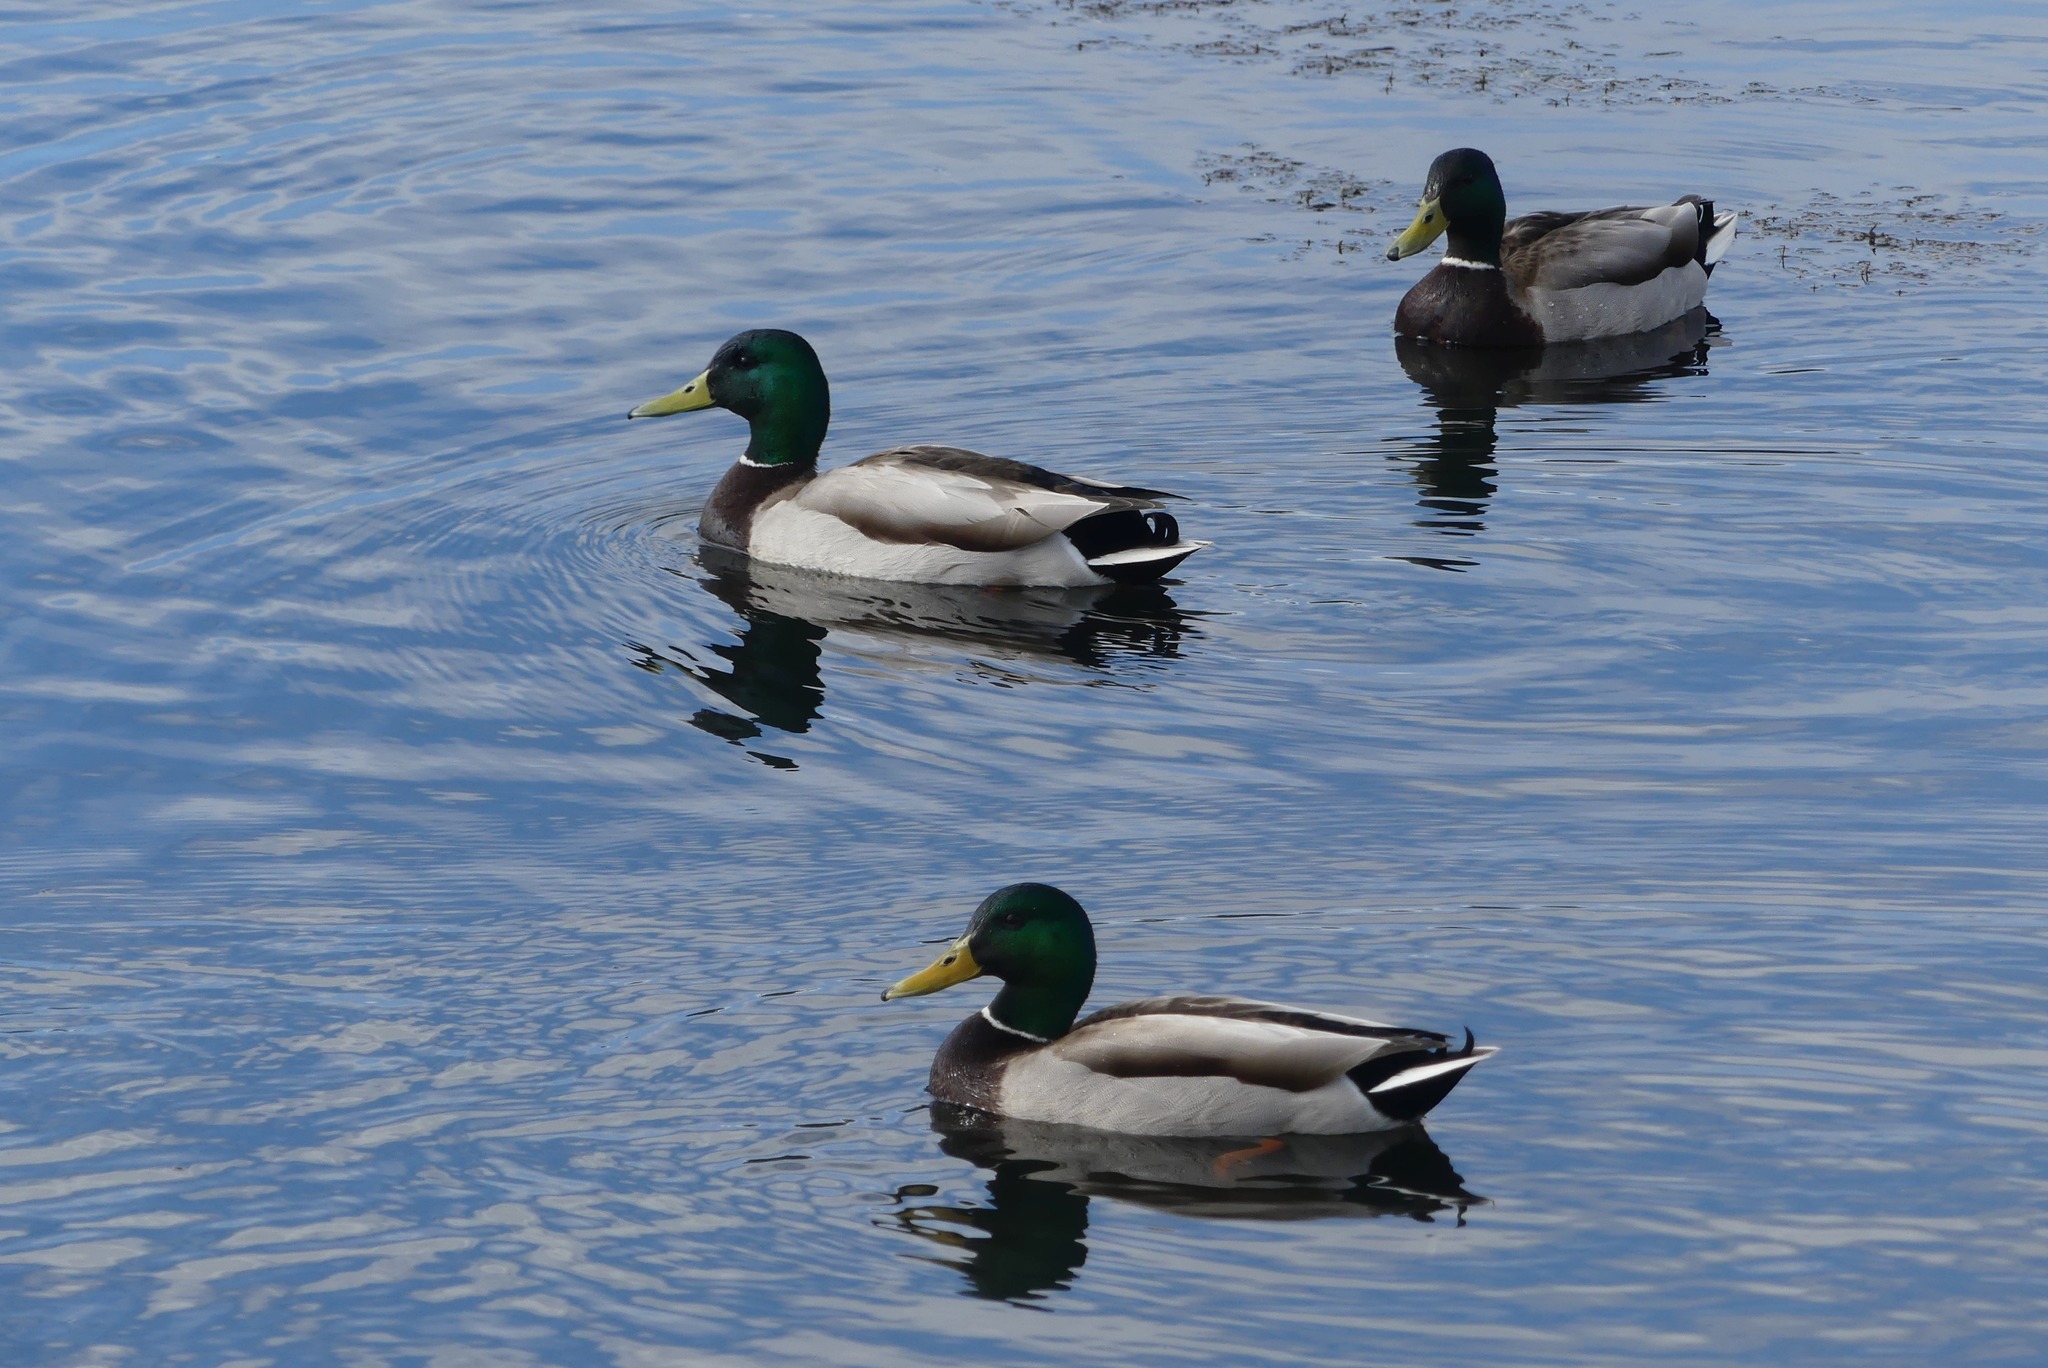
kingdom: Animalia
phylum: Chordata
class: Aves
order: Anseriformes
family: Anatidae
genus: Anas
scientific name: Anas platyrhynchos
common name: Mallard
